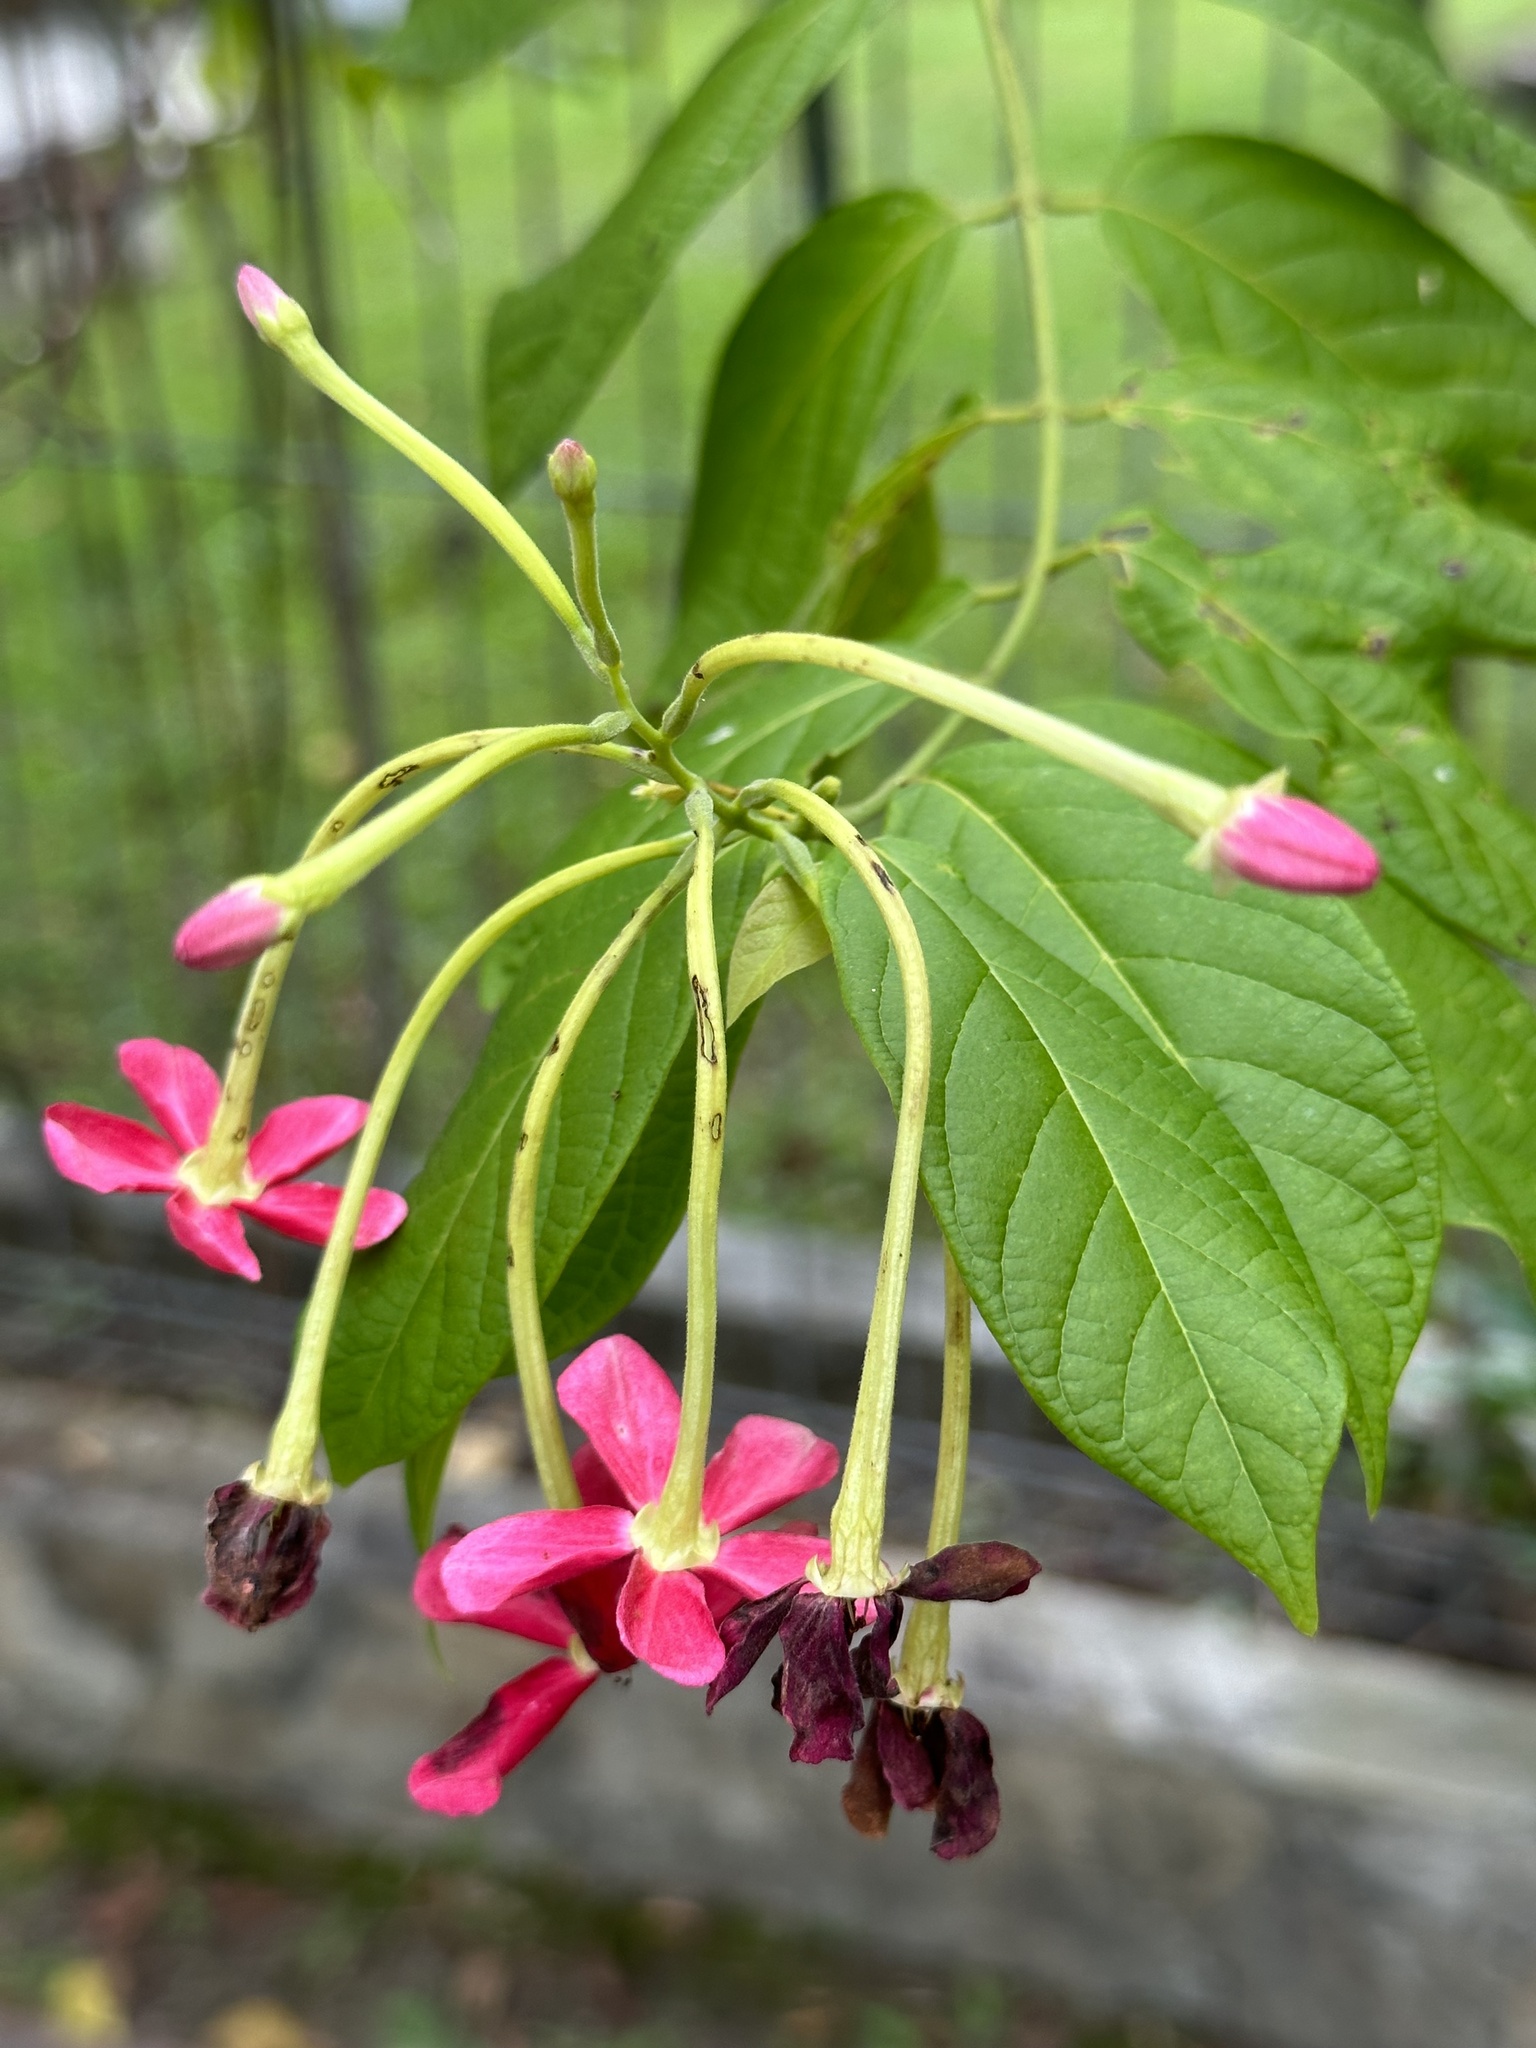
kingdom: Plantae
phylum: Tracheophyta
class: Magnoliopsida
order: Myrtales
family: Combretaceae
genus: Combretum
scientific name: Combretum indicum
